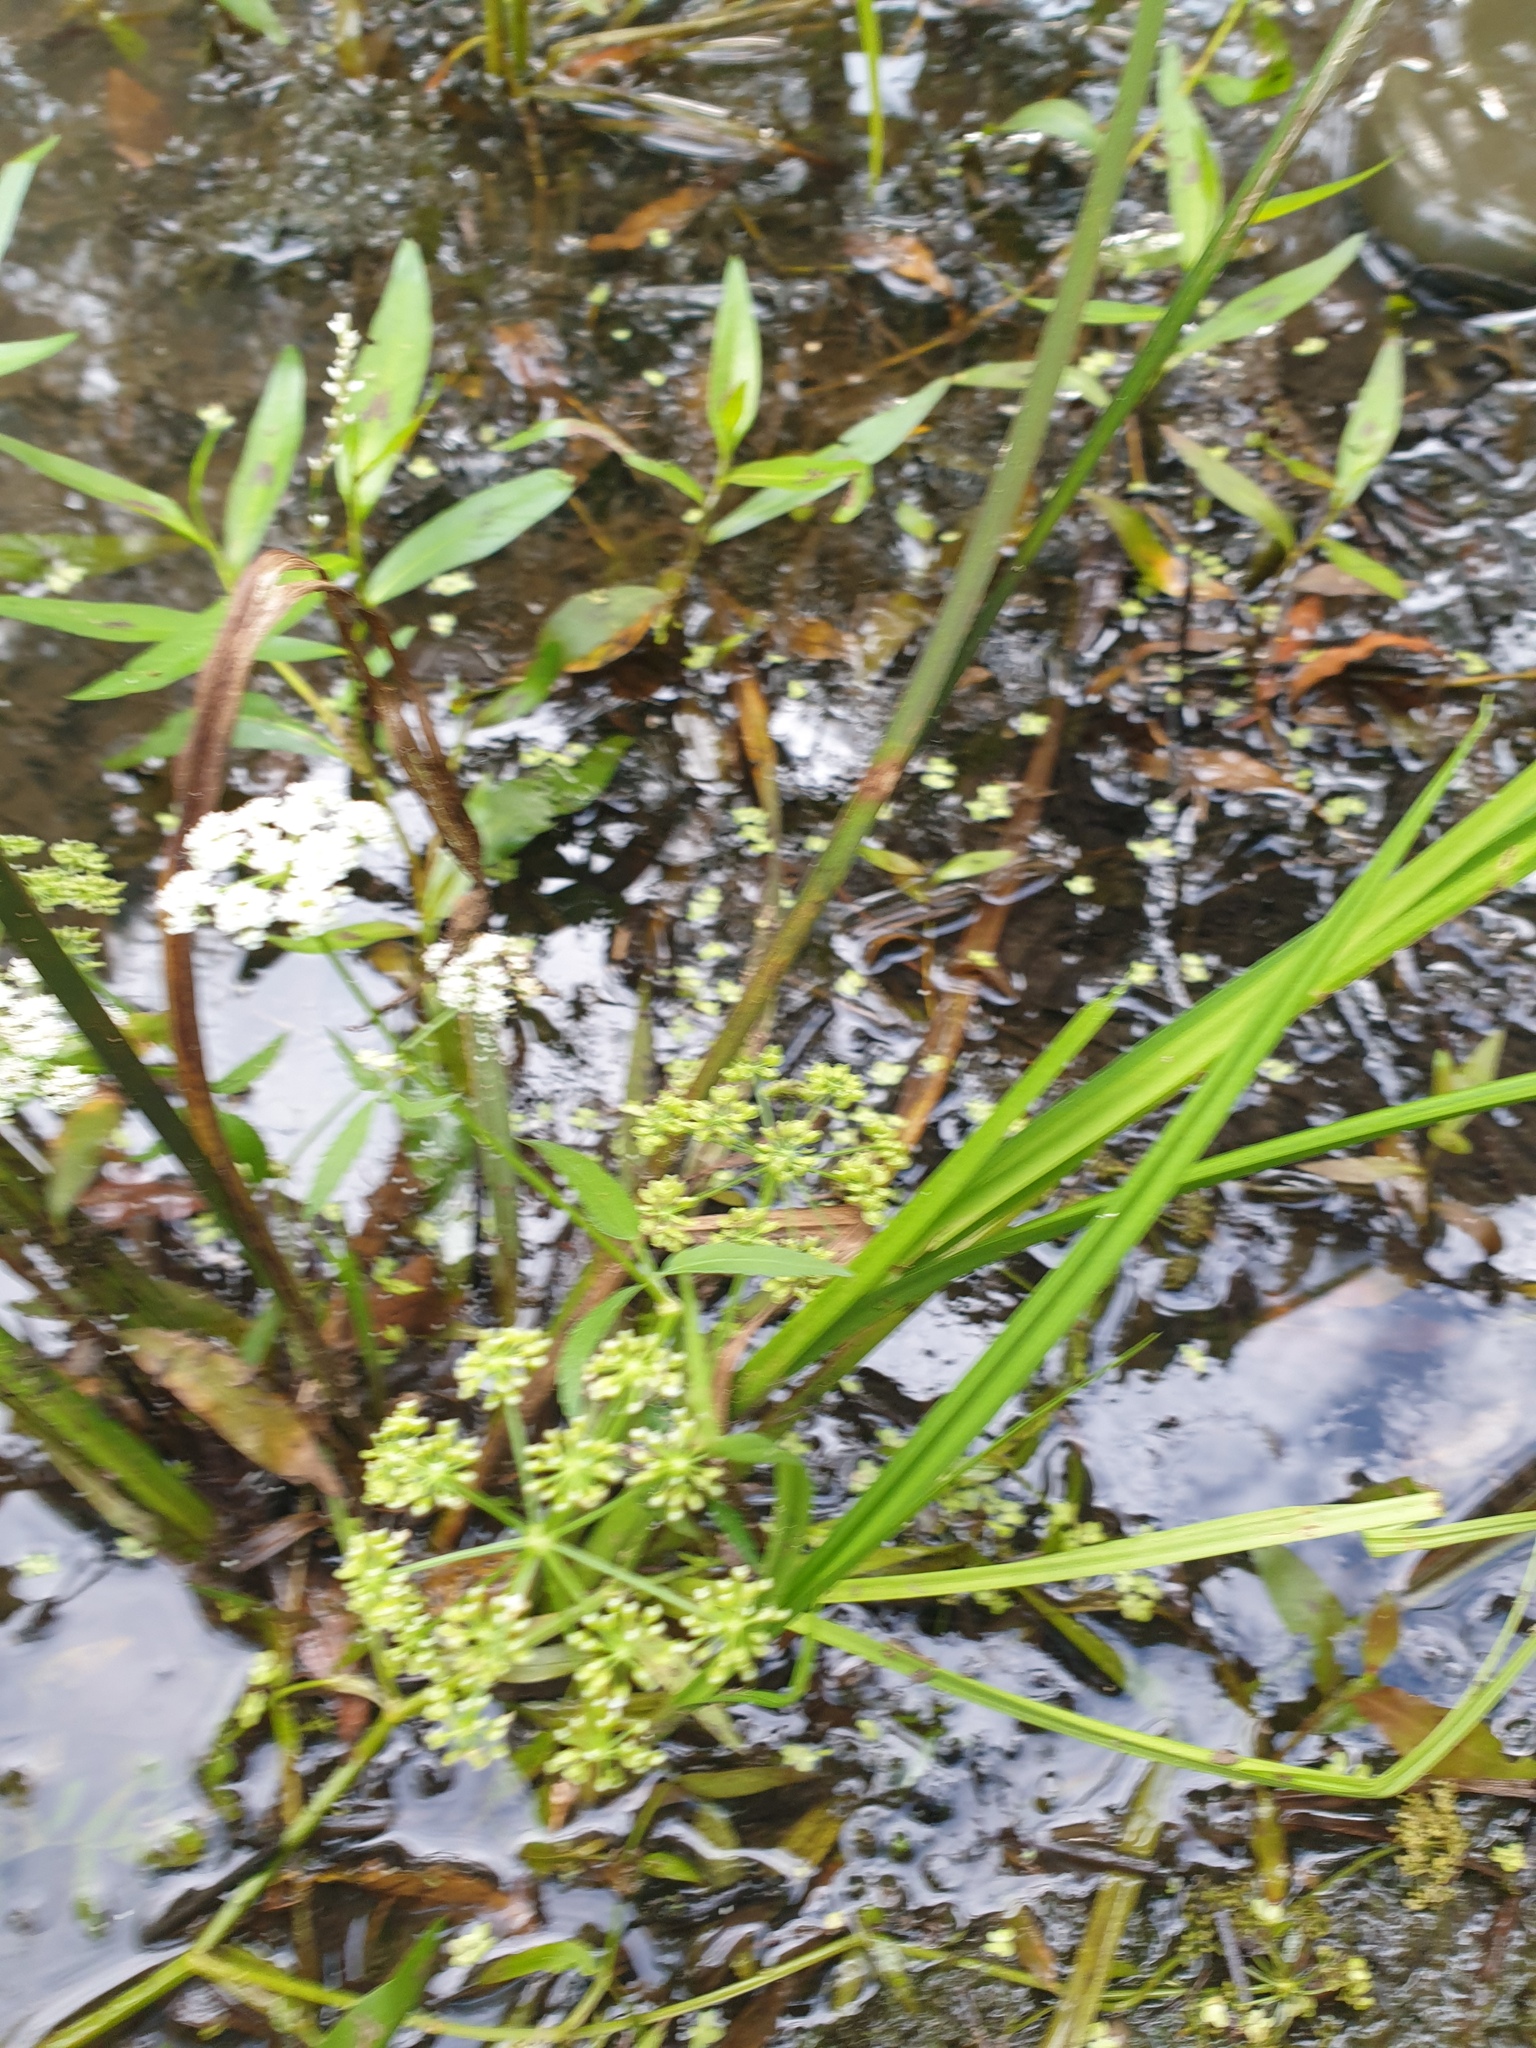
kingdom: Plantae
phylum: Tracheophyta
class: Magnoliopsida
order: Apiales
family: Apiaceae
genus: Sium
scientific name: Sium suave
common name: Hemlock water-parsnip
